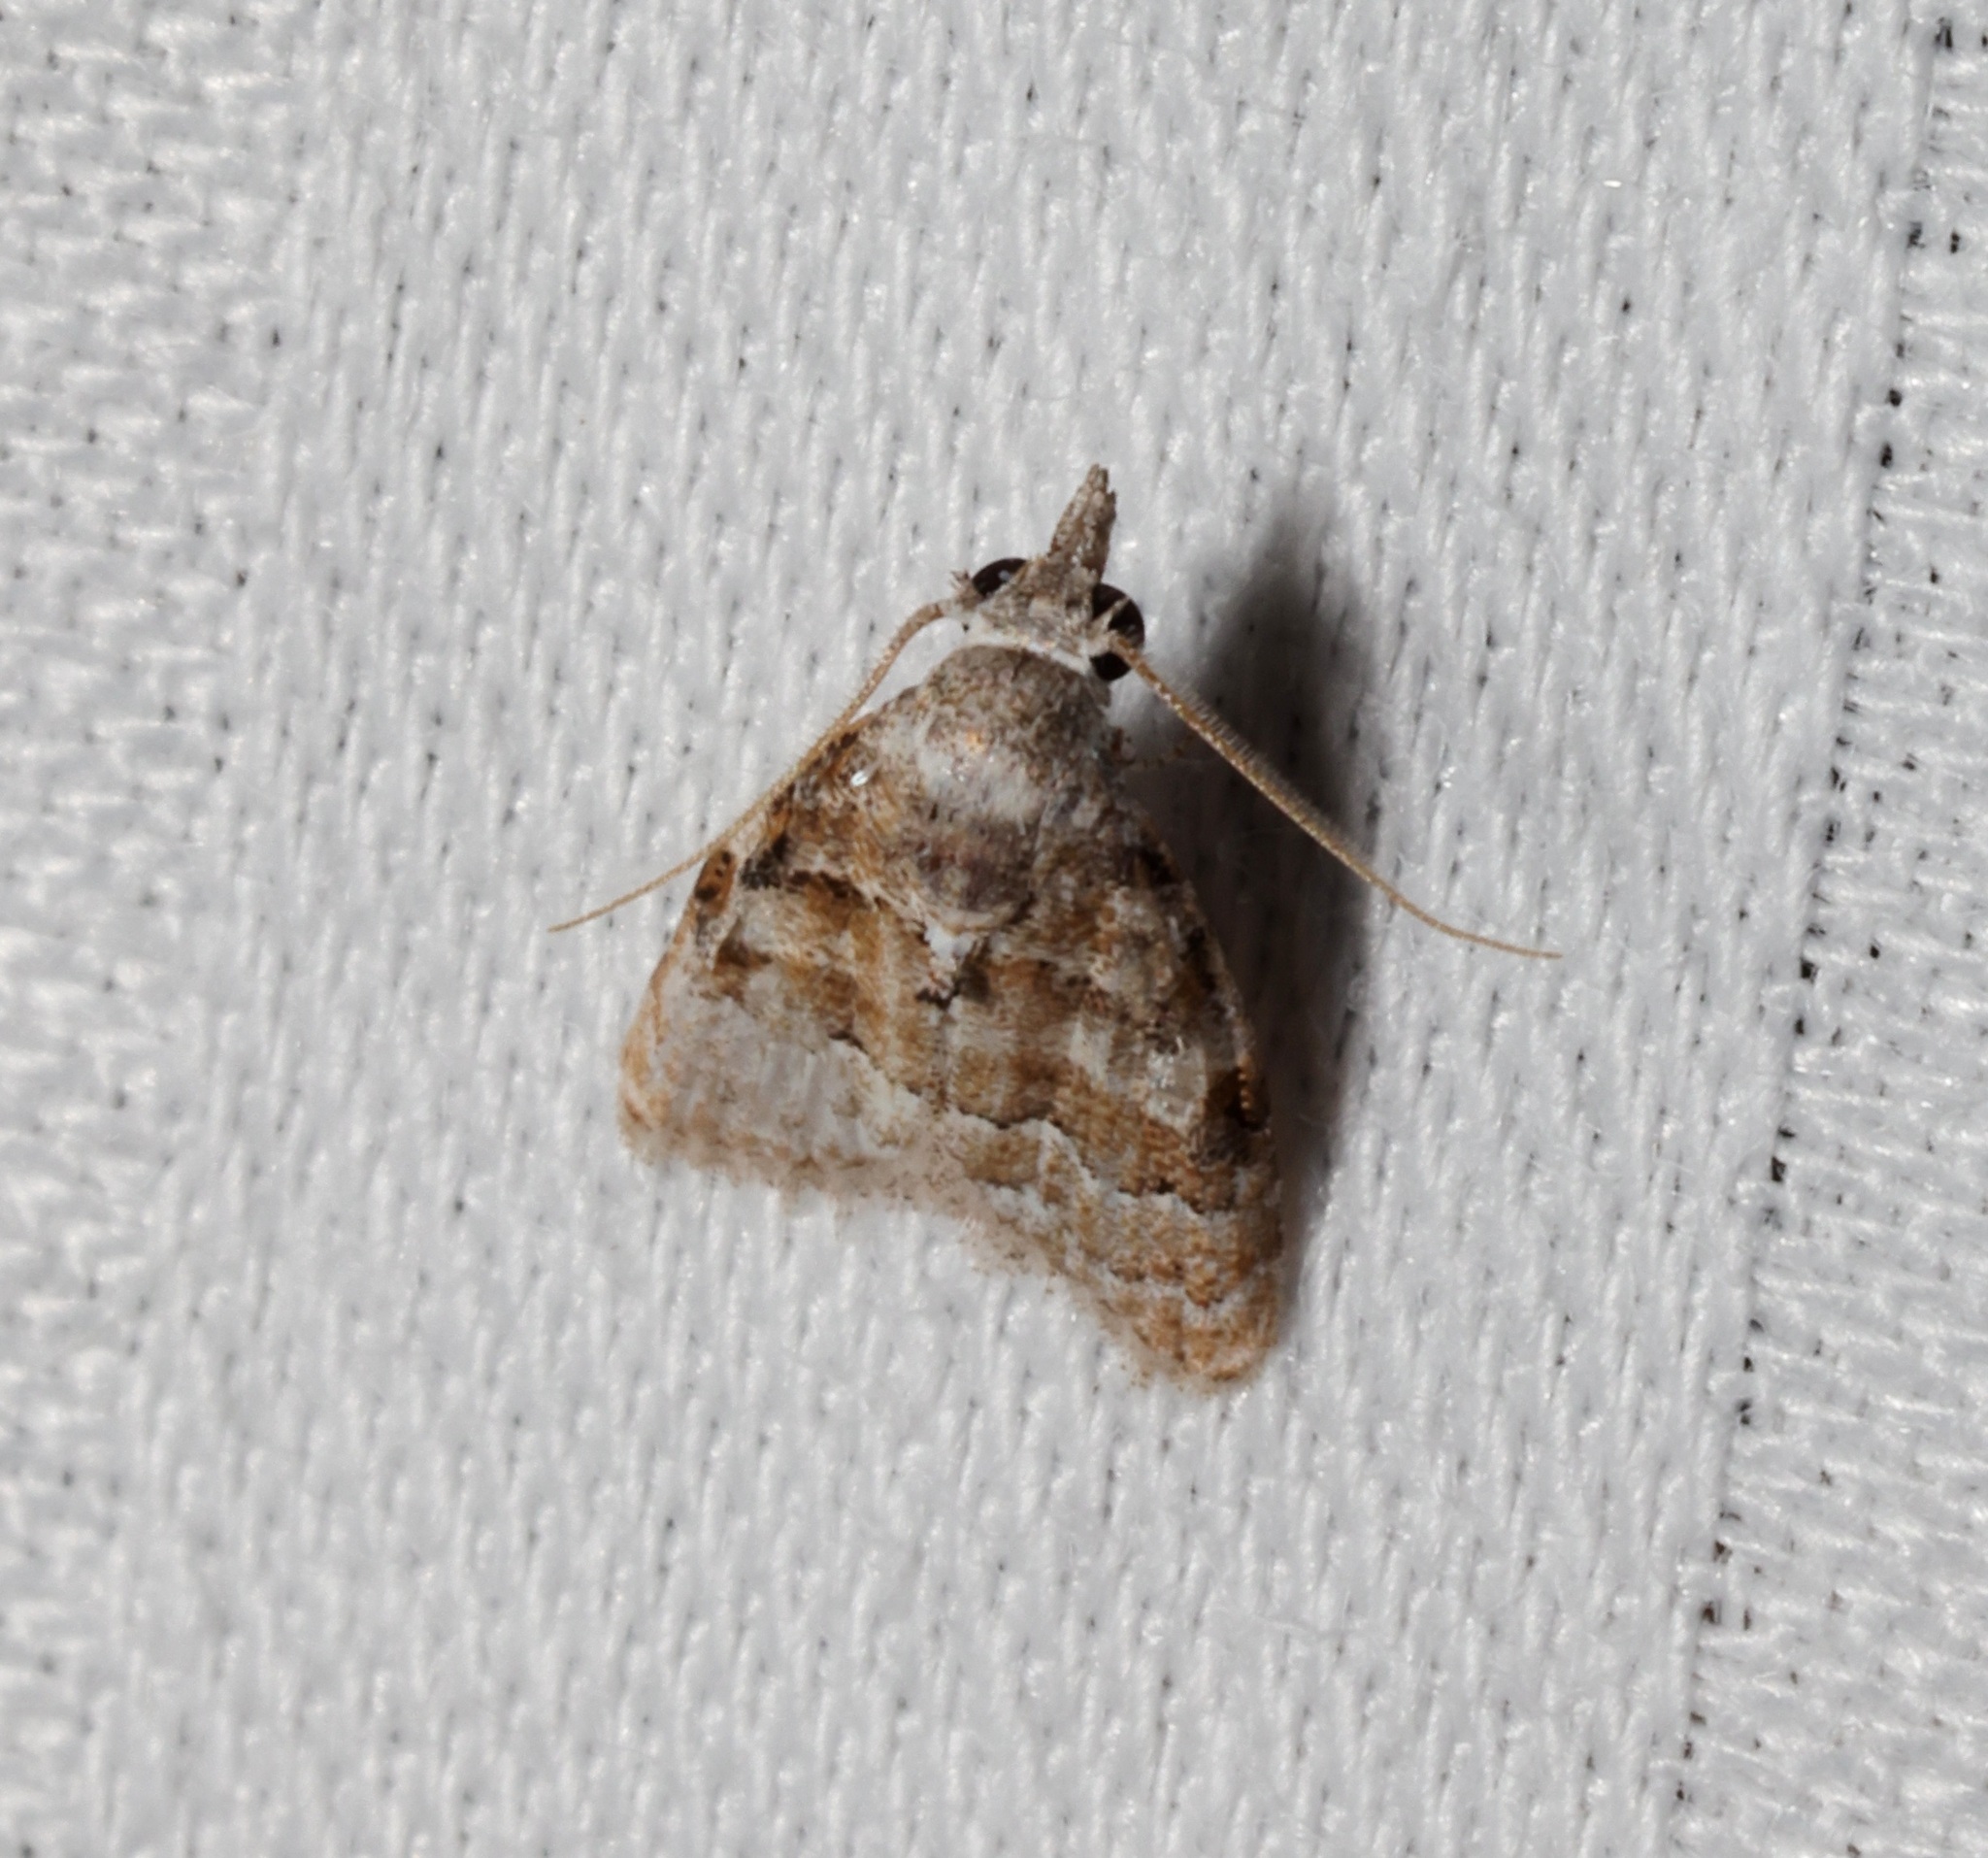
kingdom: Animalia
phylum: Arthropoda
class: Insecta
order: Lepidoptera
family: Nolidae
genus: Nola
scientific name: Nola bifascialis
